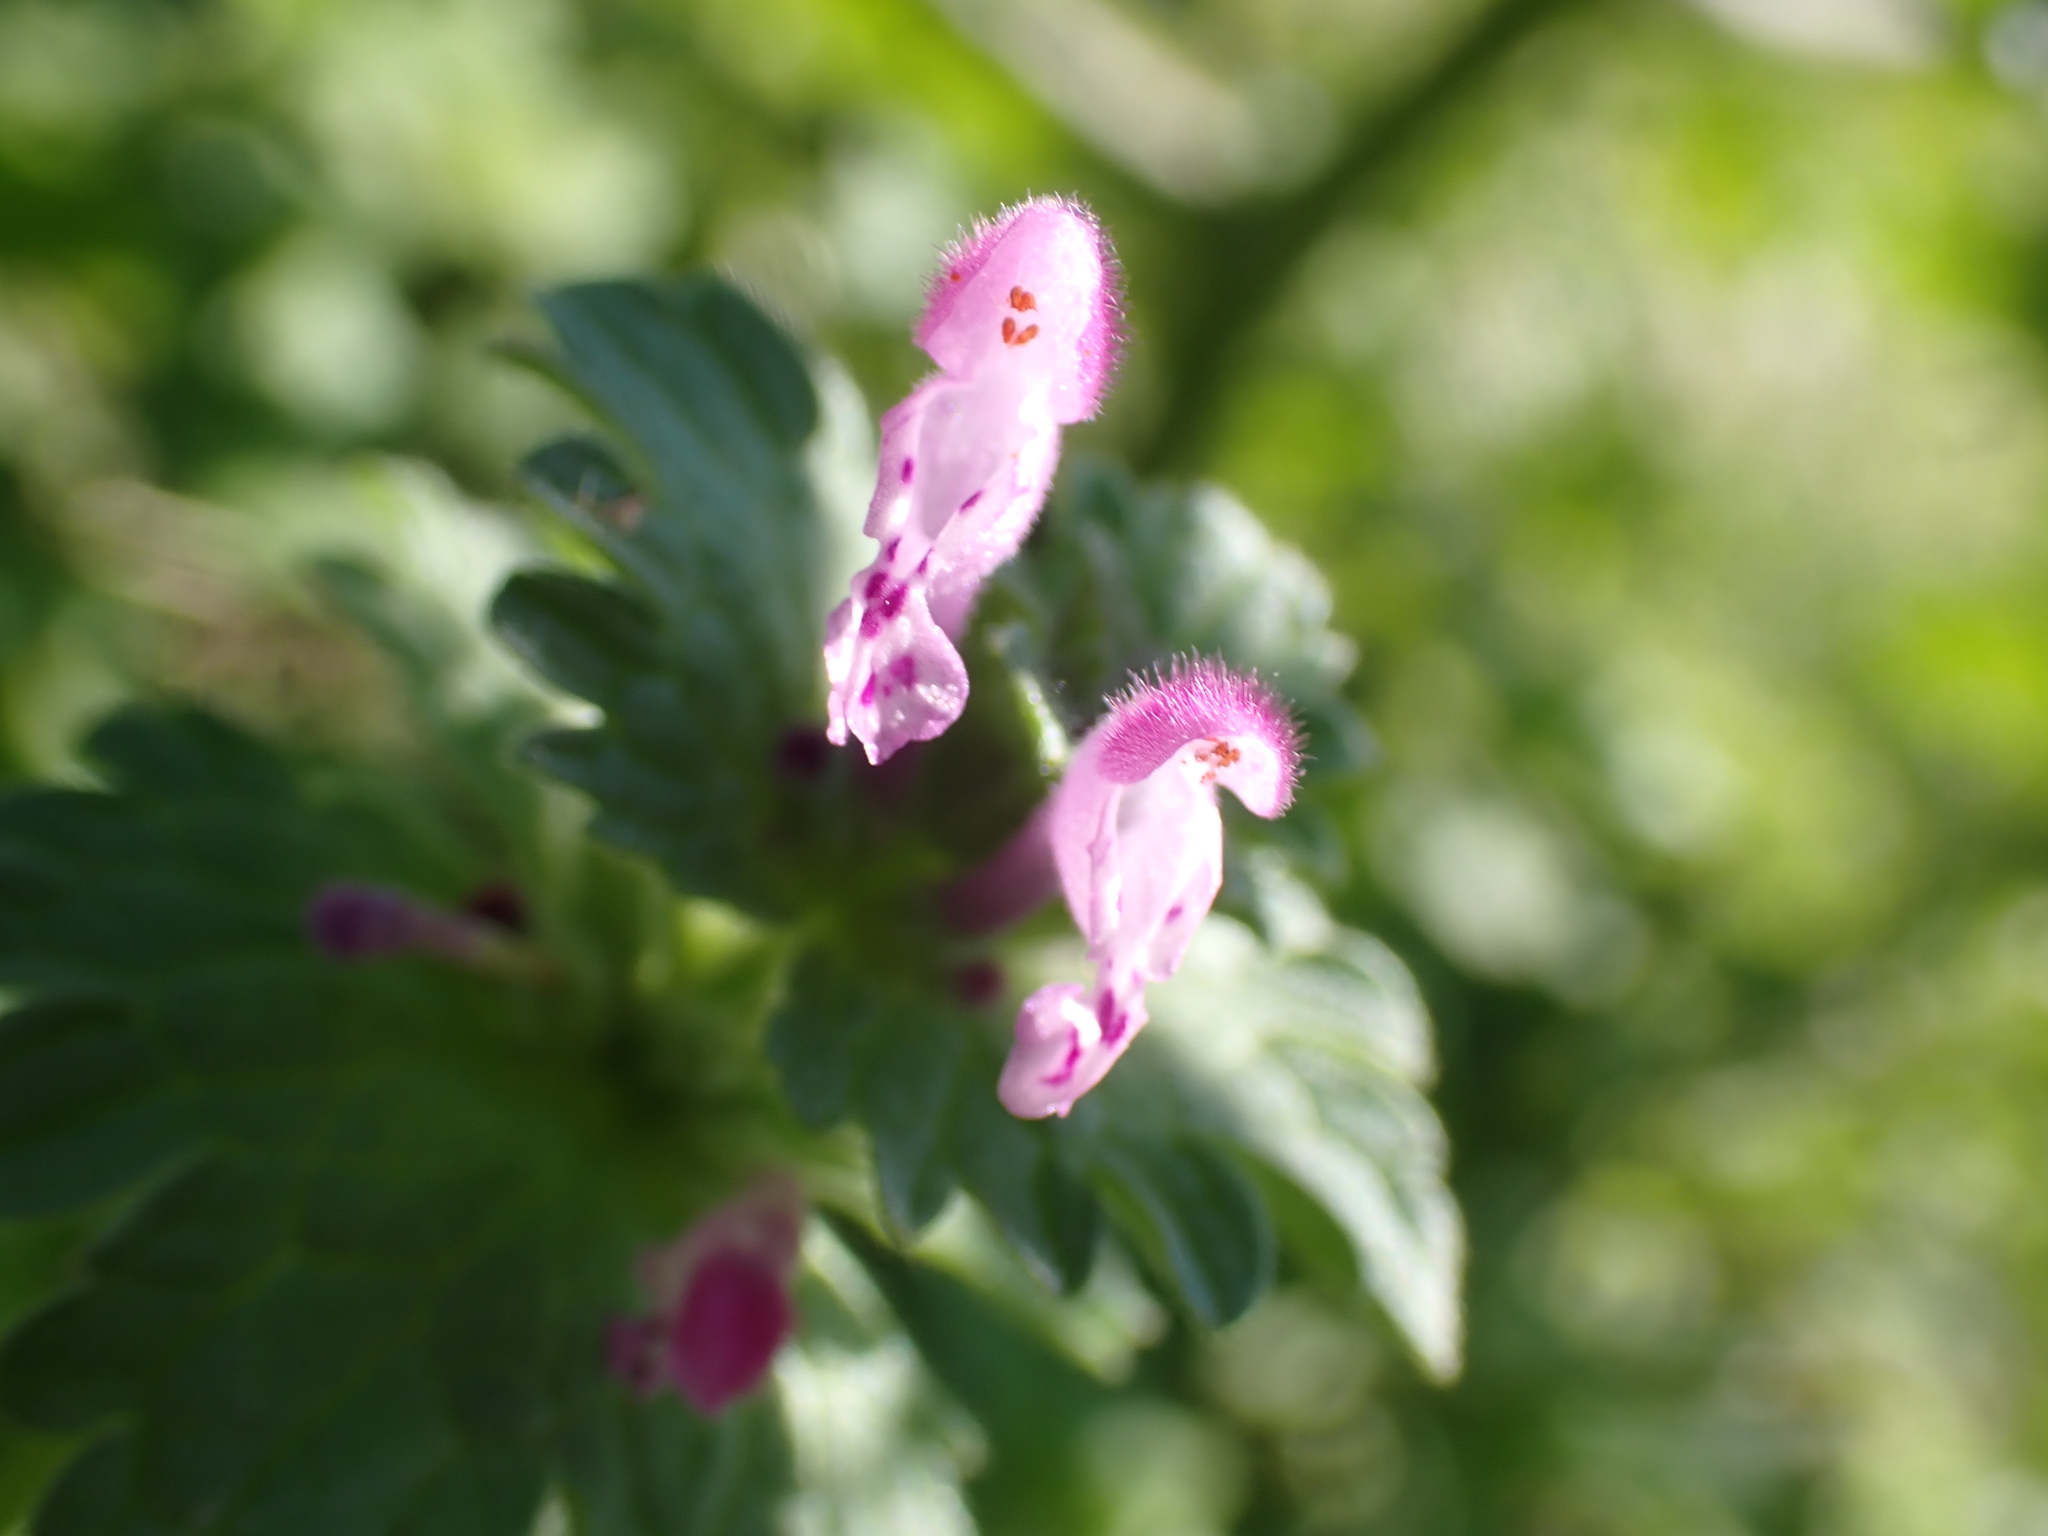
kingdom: Plantae
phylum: Tracheophyta
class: Magnoliopsida
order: Lamiales
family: Lamiaceae
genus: Lamium
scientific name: Lamium amplexicaule
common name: Henbit dead-nettle
